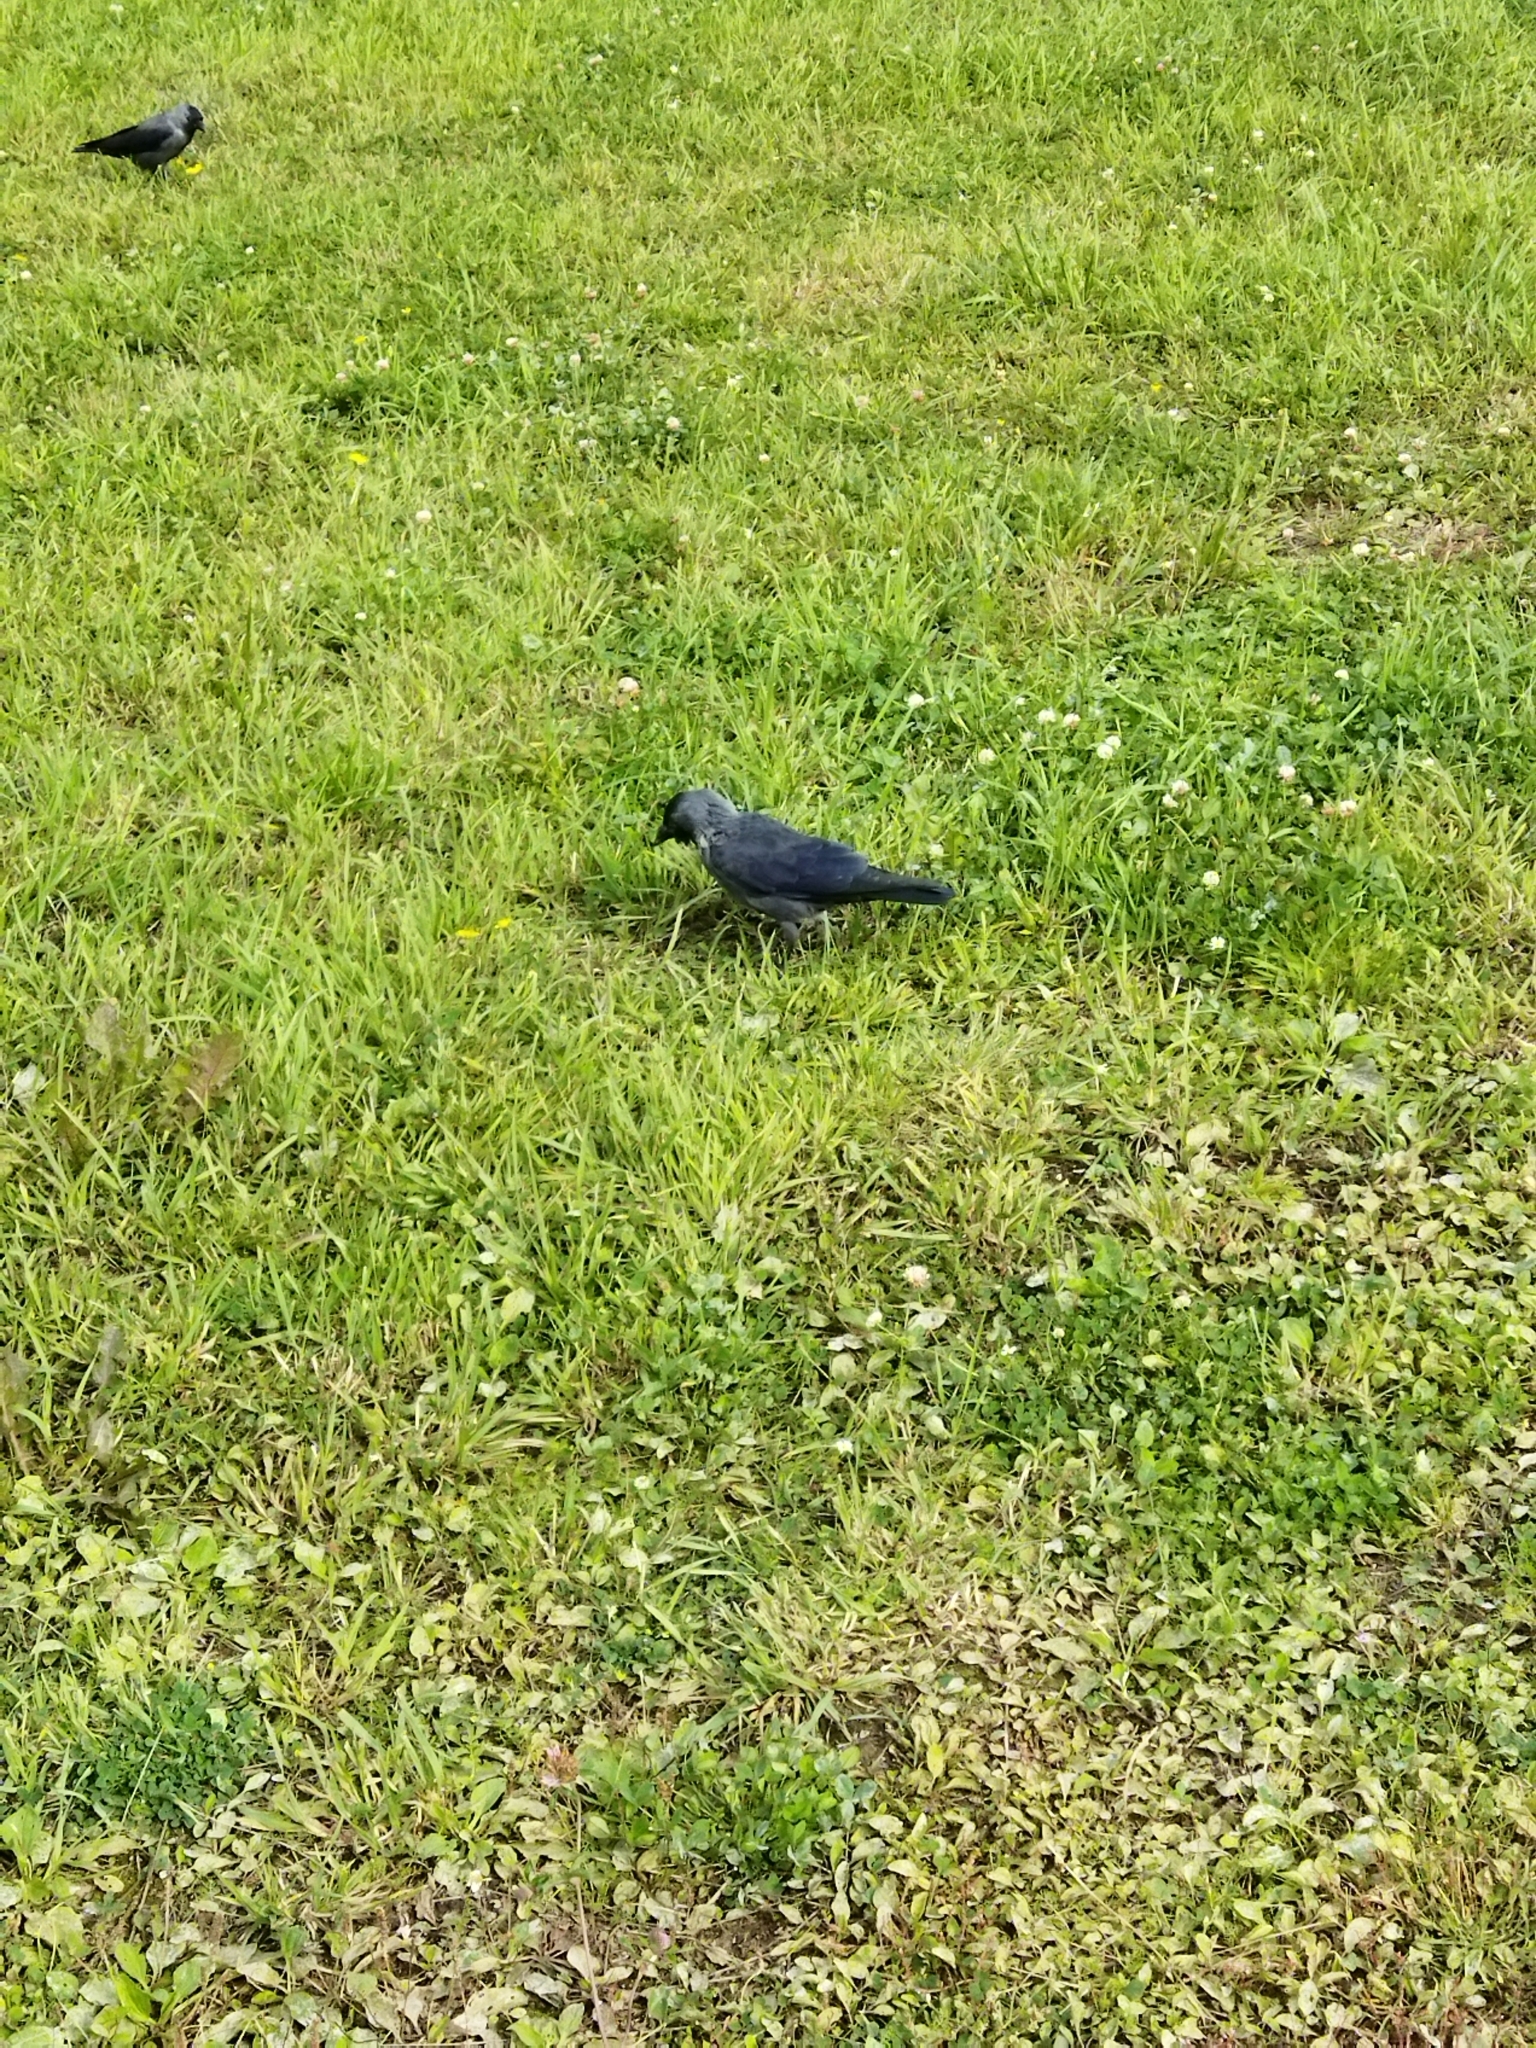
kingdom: Animalia
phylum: Chordata
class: Aves
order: Passeriformes
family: Corvidae
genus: Coloeus
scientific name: Coloeus monedula
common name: Western jackdaw
